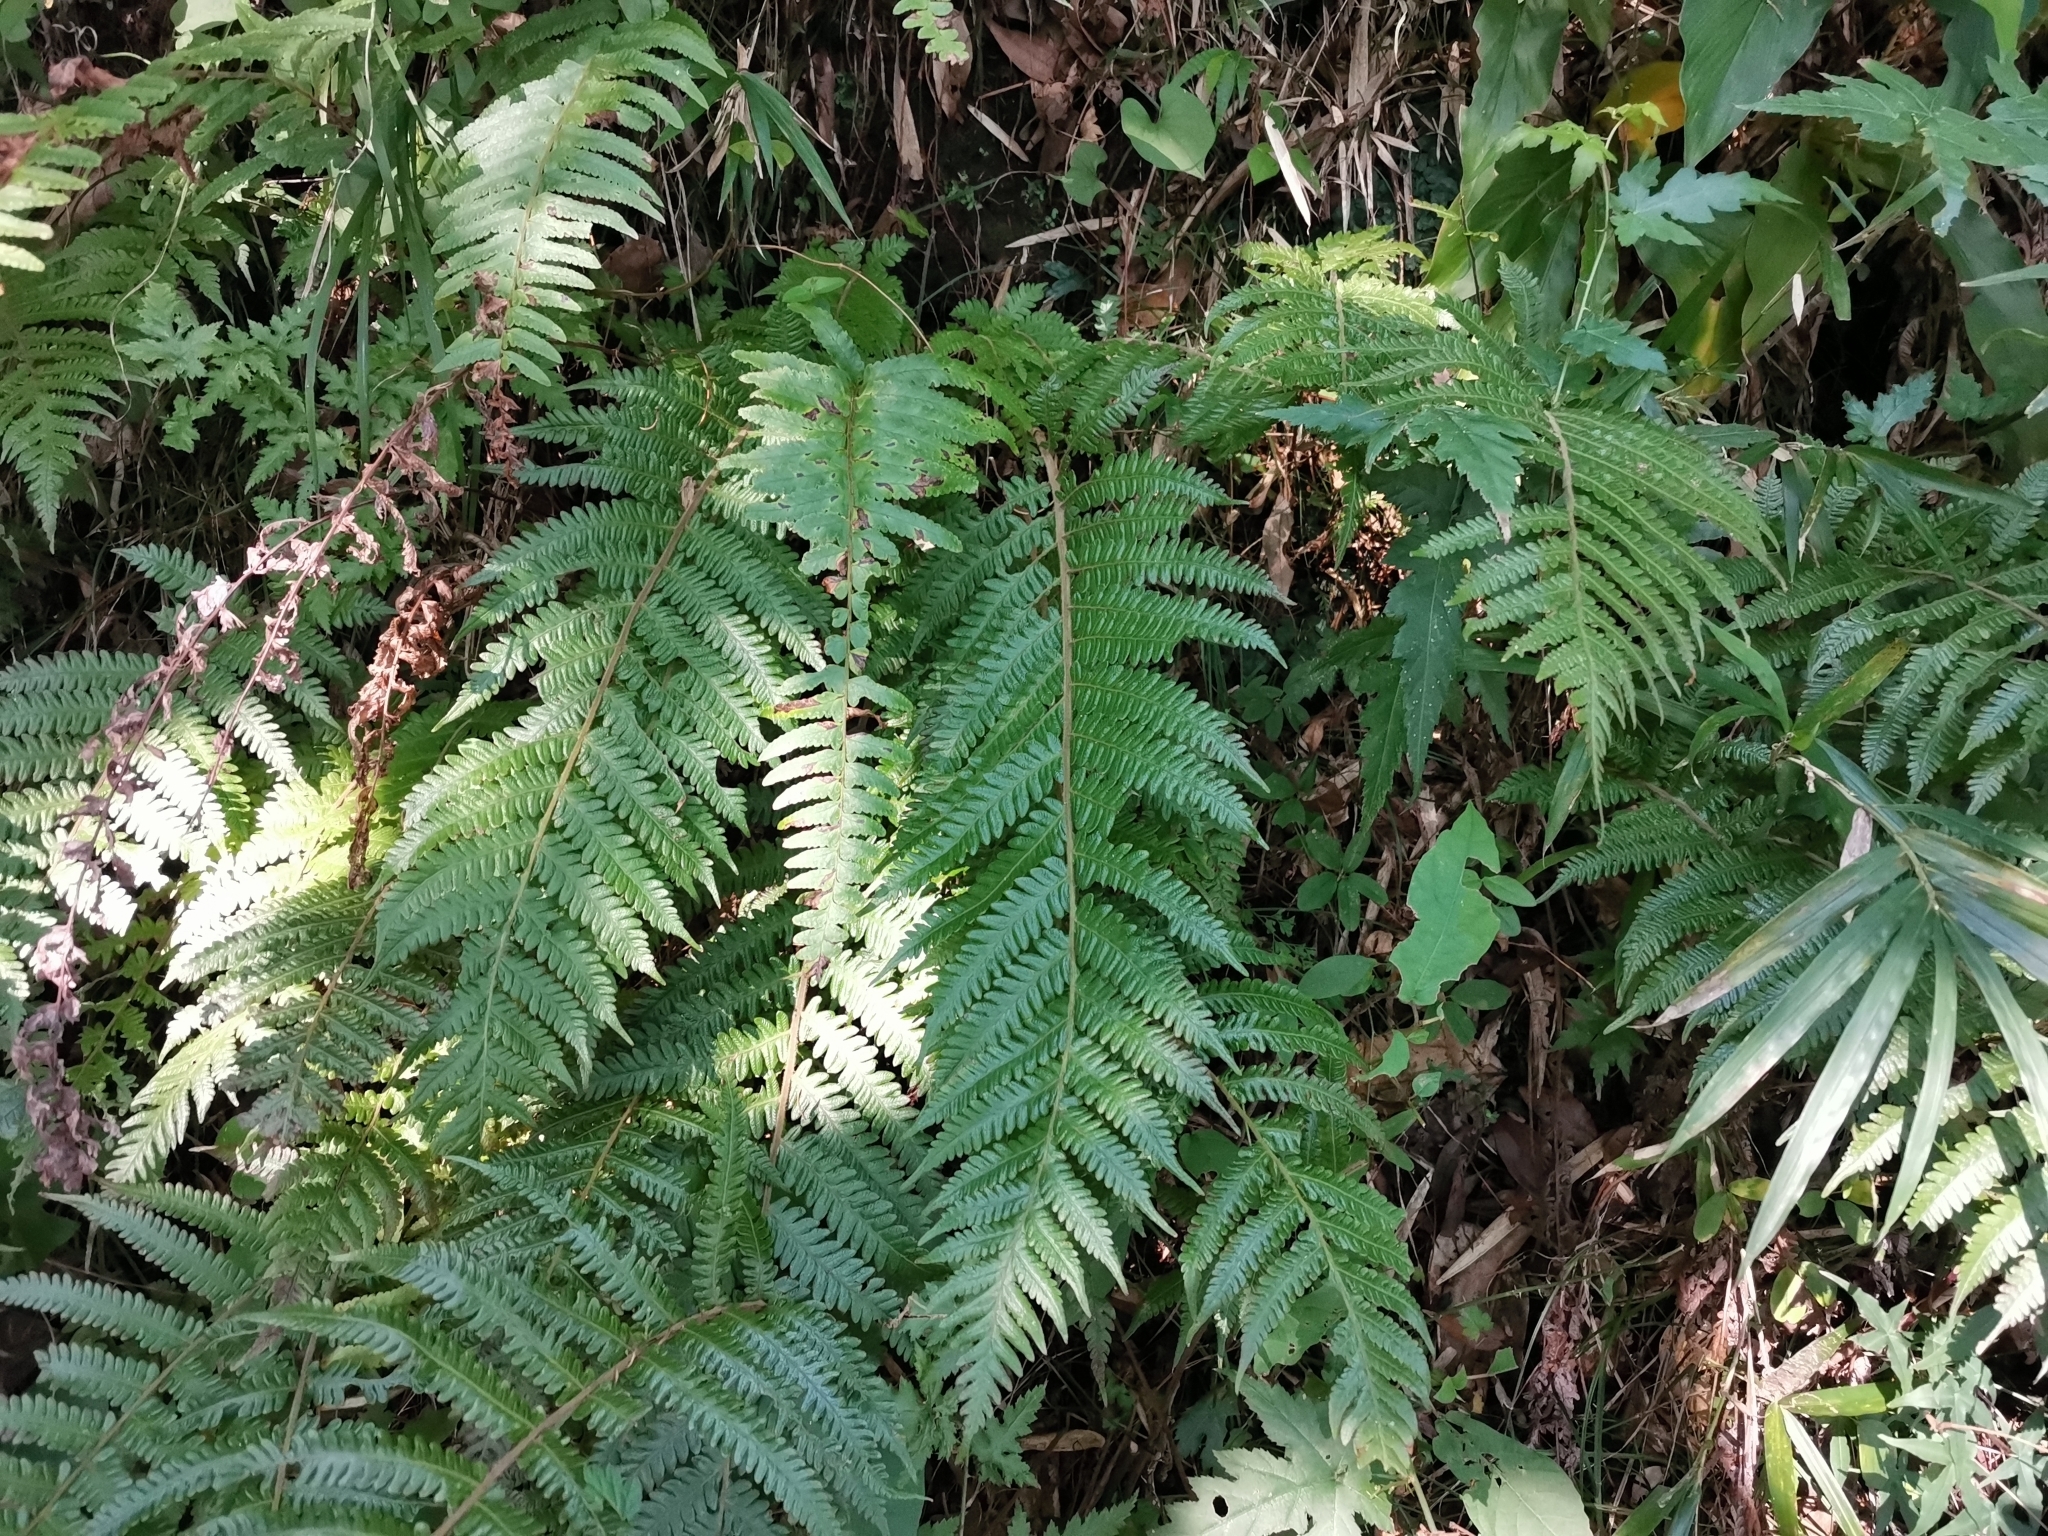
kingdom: Plantae
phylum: Tracheophyta
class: Polypodiopsida
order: Polypodiales
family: Thelypteridaceae
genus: Leptogramma
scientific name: Leptogramma mollissima
